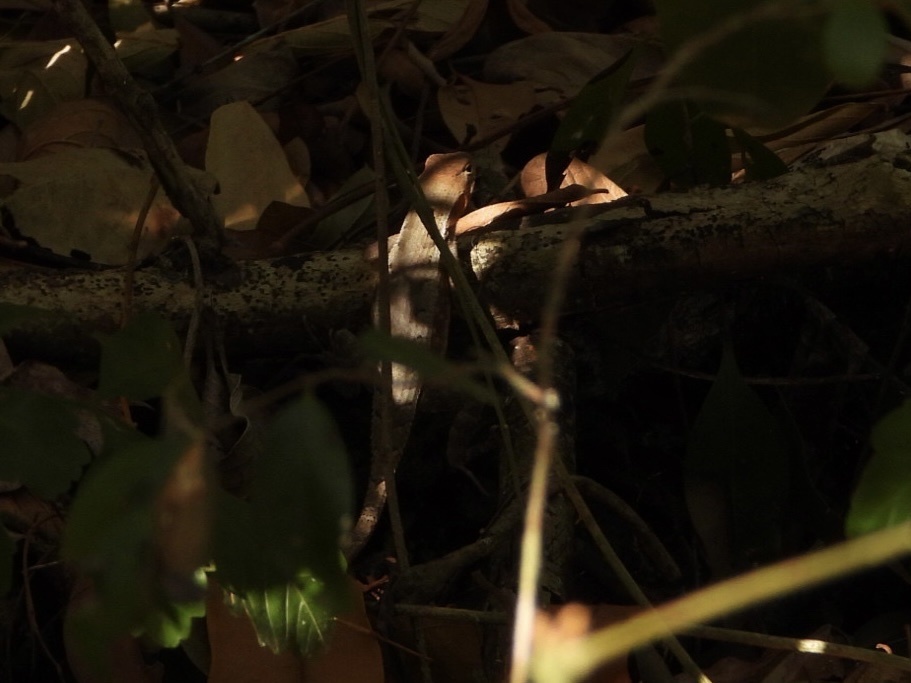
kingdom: Animalia
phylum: Chordata
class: Squamata
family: Phrynosomatidae
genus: Sceloporus
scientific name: Sceloporus chrysostictus
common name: Yellow-spotted spiny lizard
